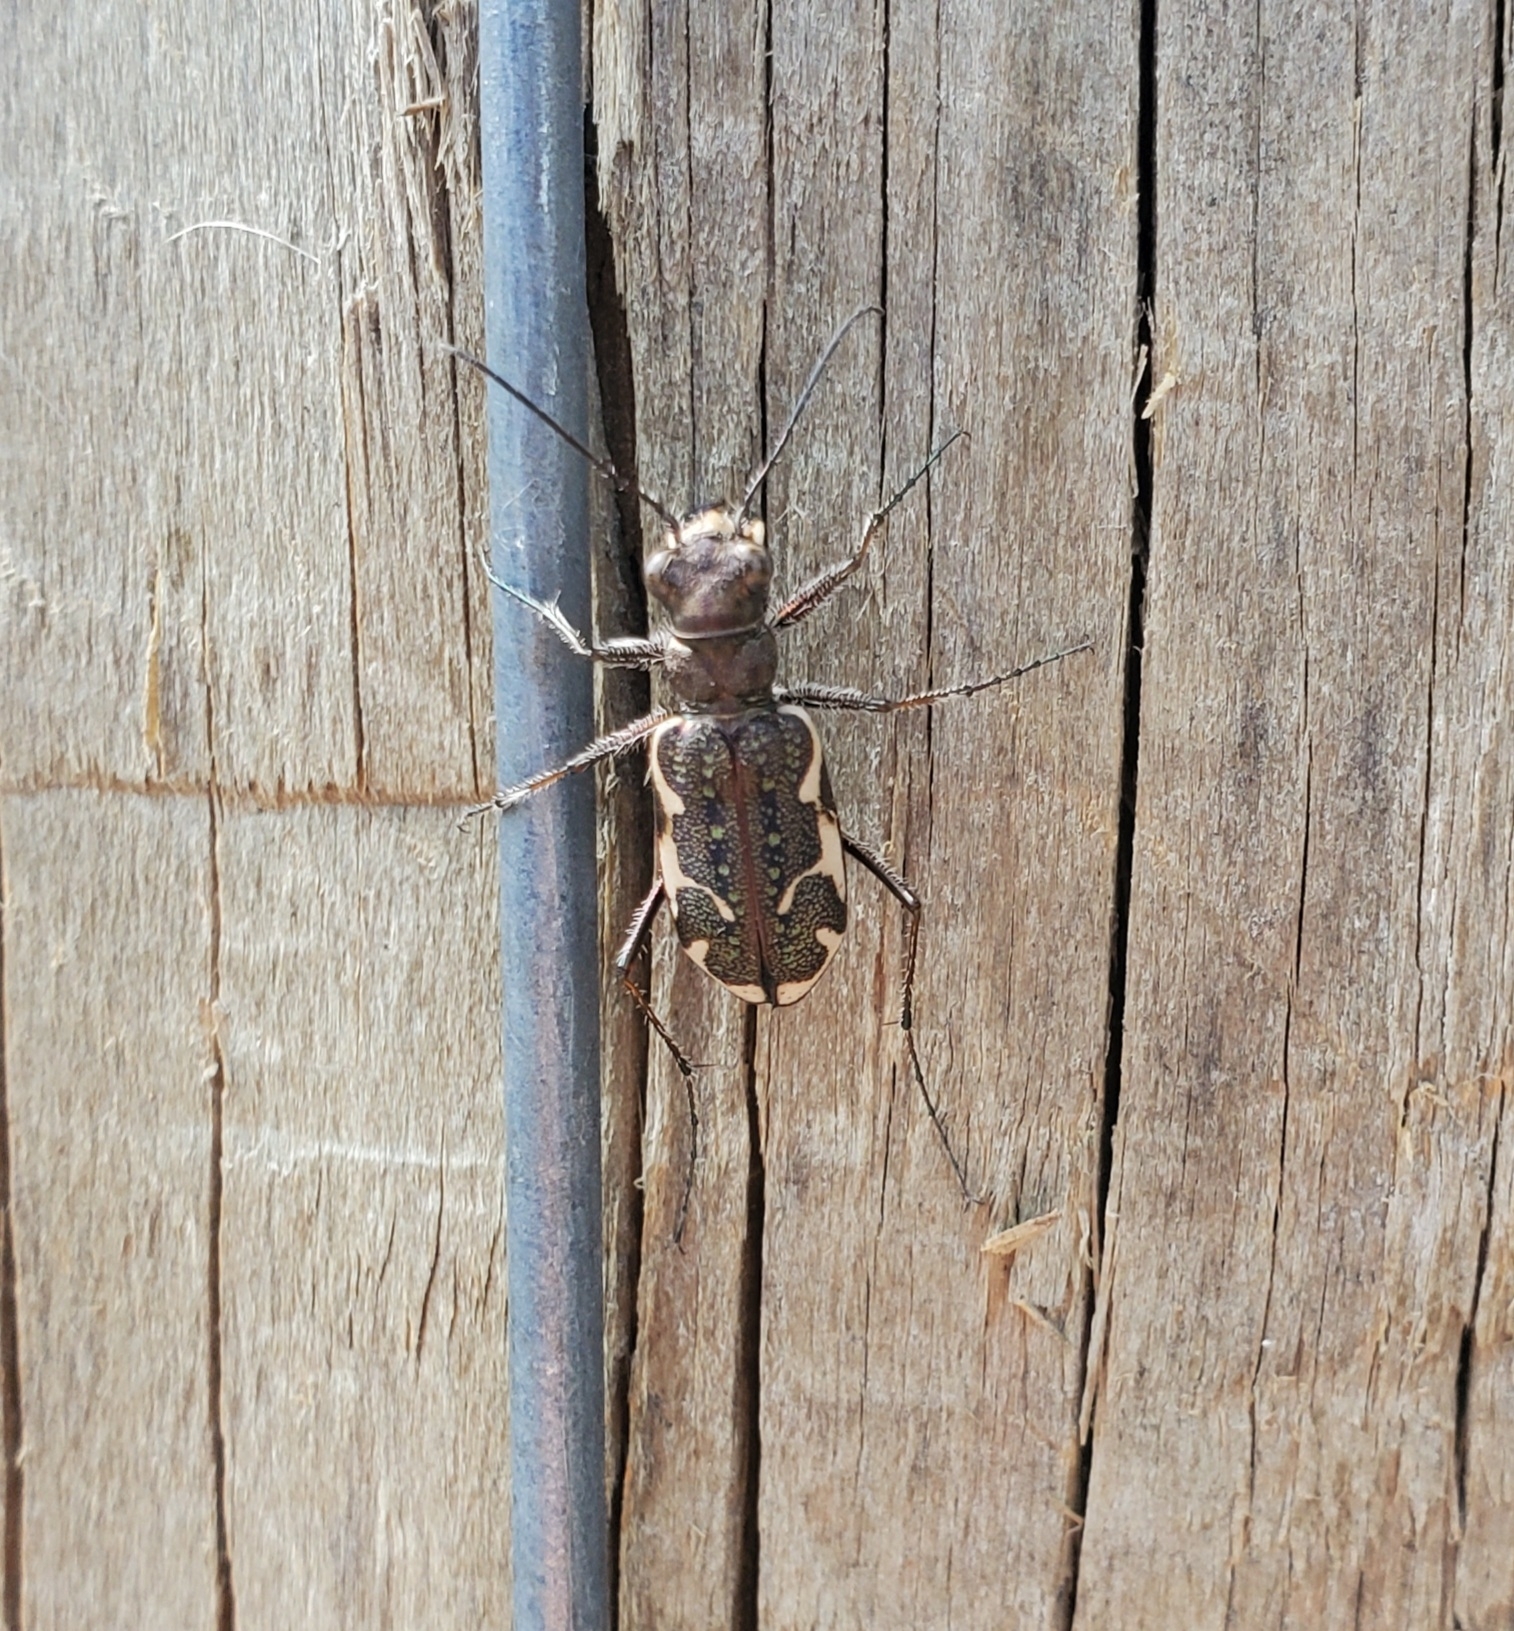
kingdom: Animalia
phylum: Arthropoda
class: Insecta
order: Coleoptera
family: Carabidae
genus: Neocicindela
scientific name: Neocicindela tuberculata
